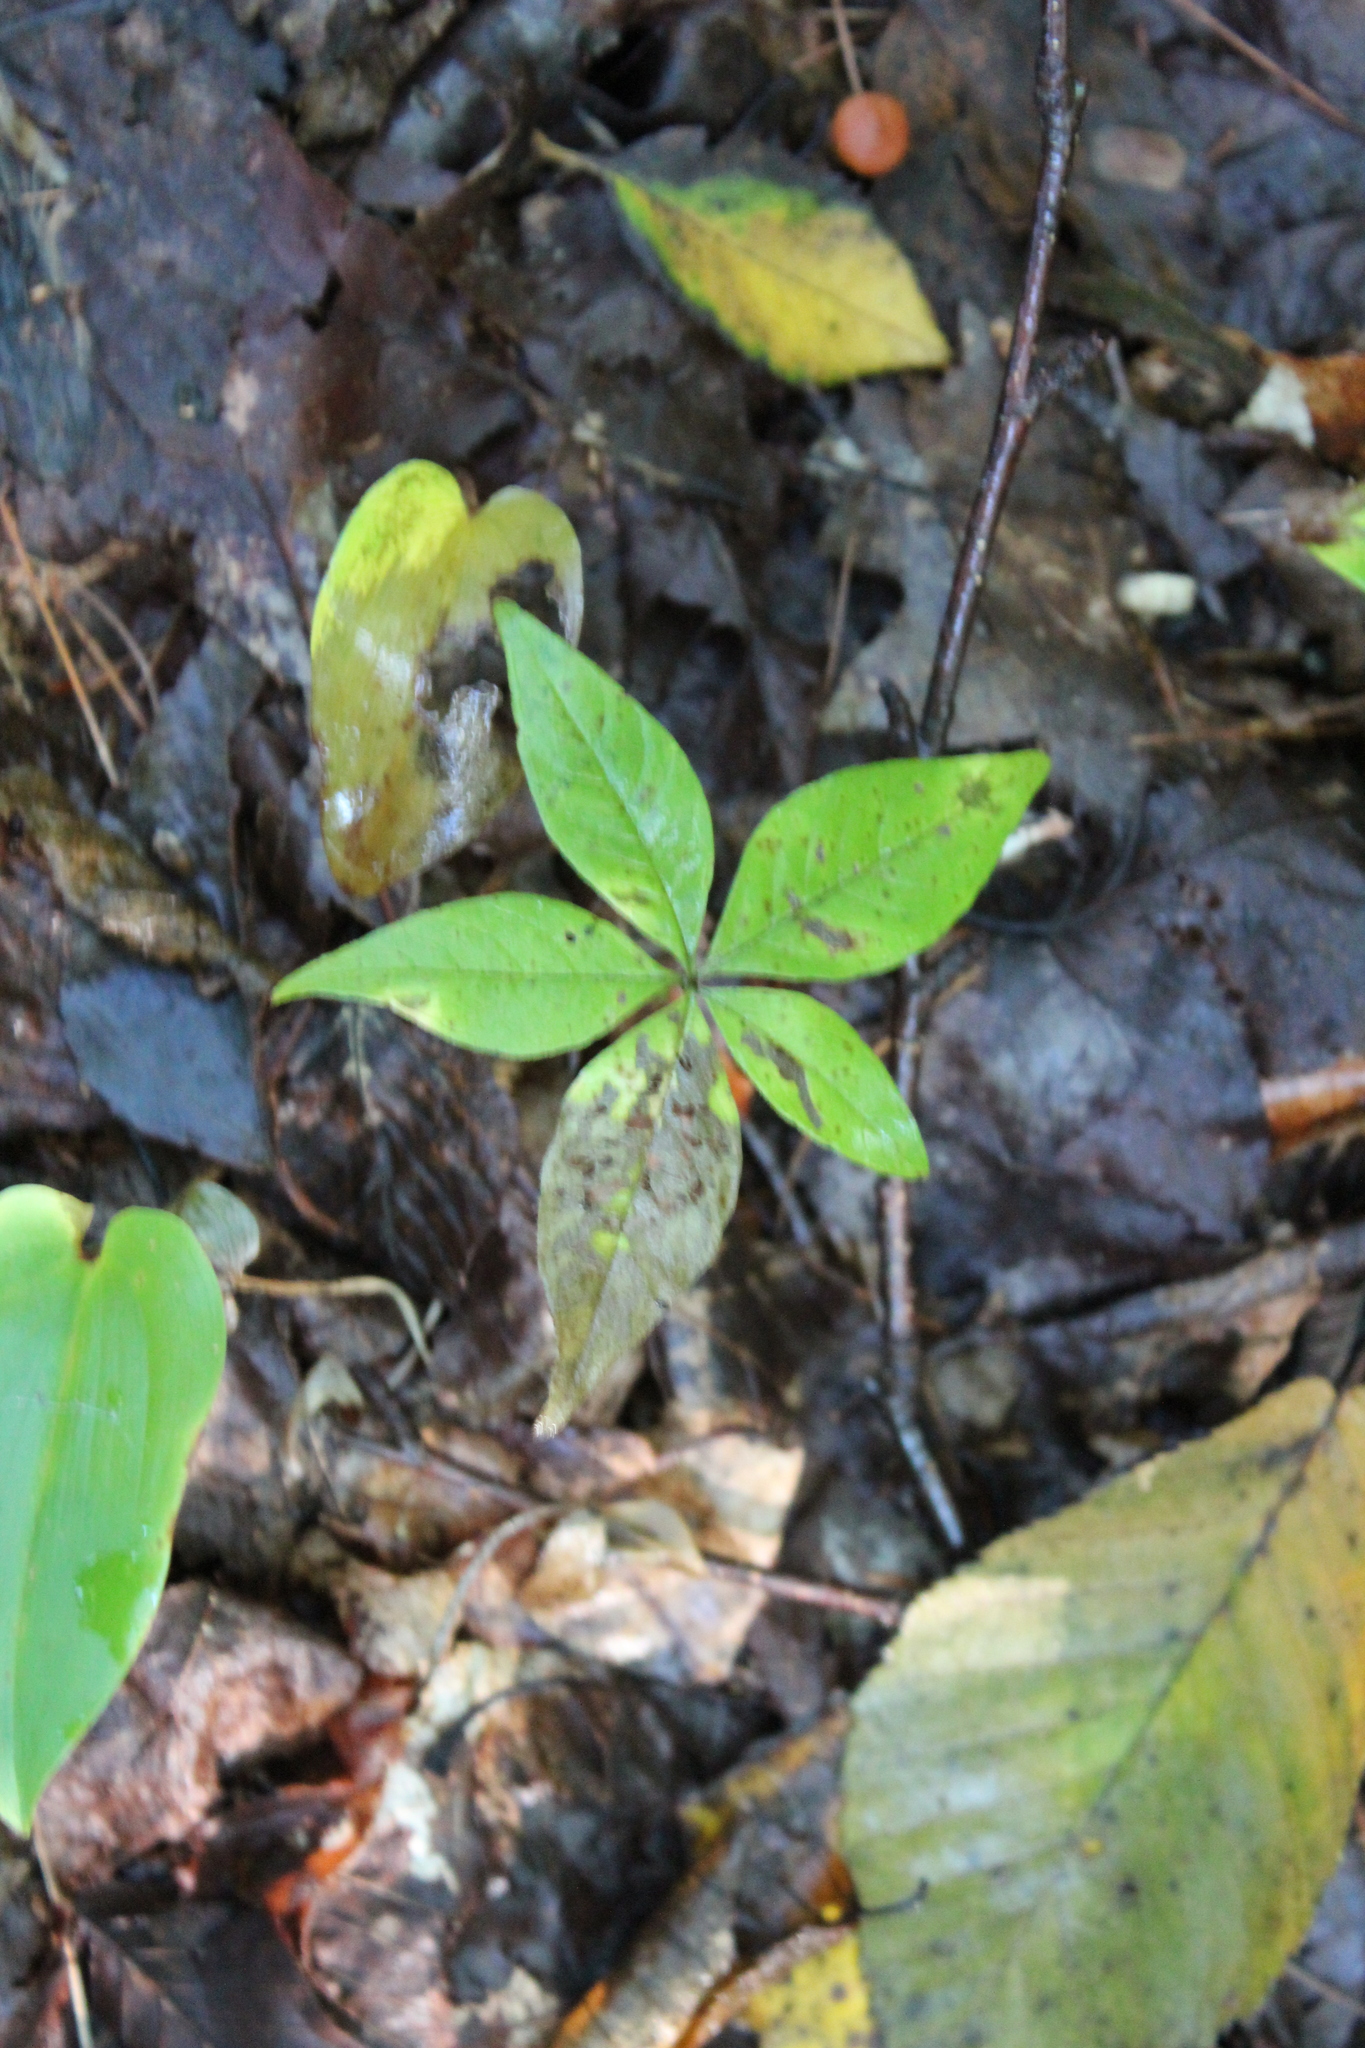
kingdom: Plantae
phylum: Tracheophyta
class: Magnoliopsida
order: Ericales
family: Primulaceae
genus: Lysimachia
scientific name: Lysimachia borealis
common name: American starflower
